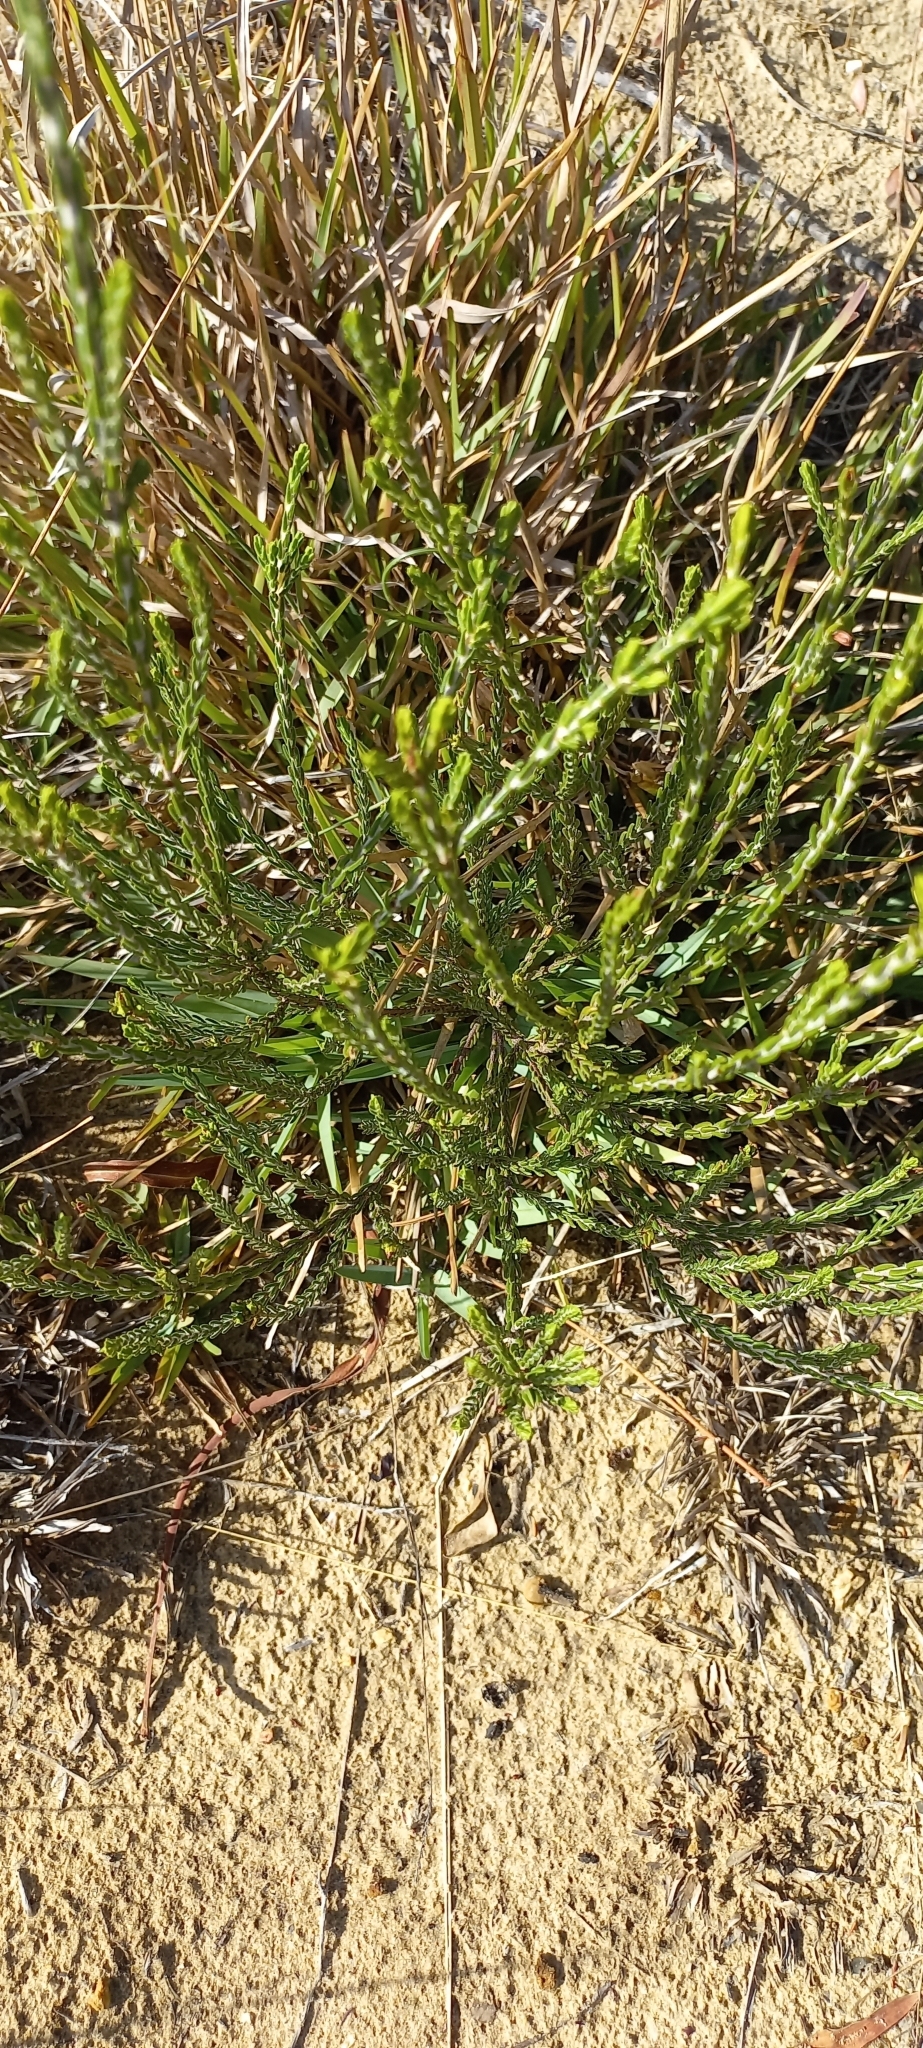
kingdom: Plantae
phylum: Tracheophyta
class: Magnoliopsida
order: Malvales
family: Thymelaeaceae
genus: Passerina
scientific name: Passerina corymbosa
